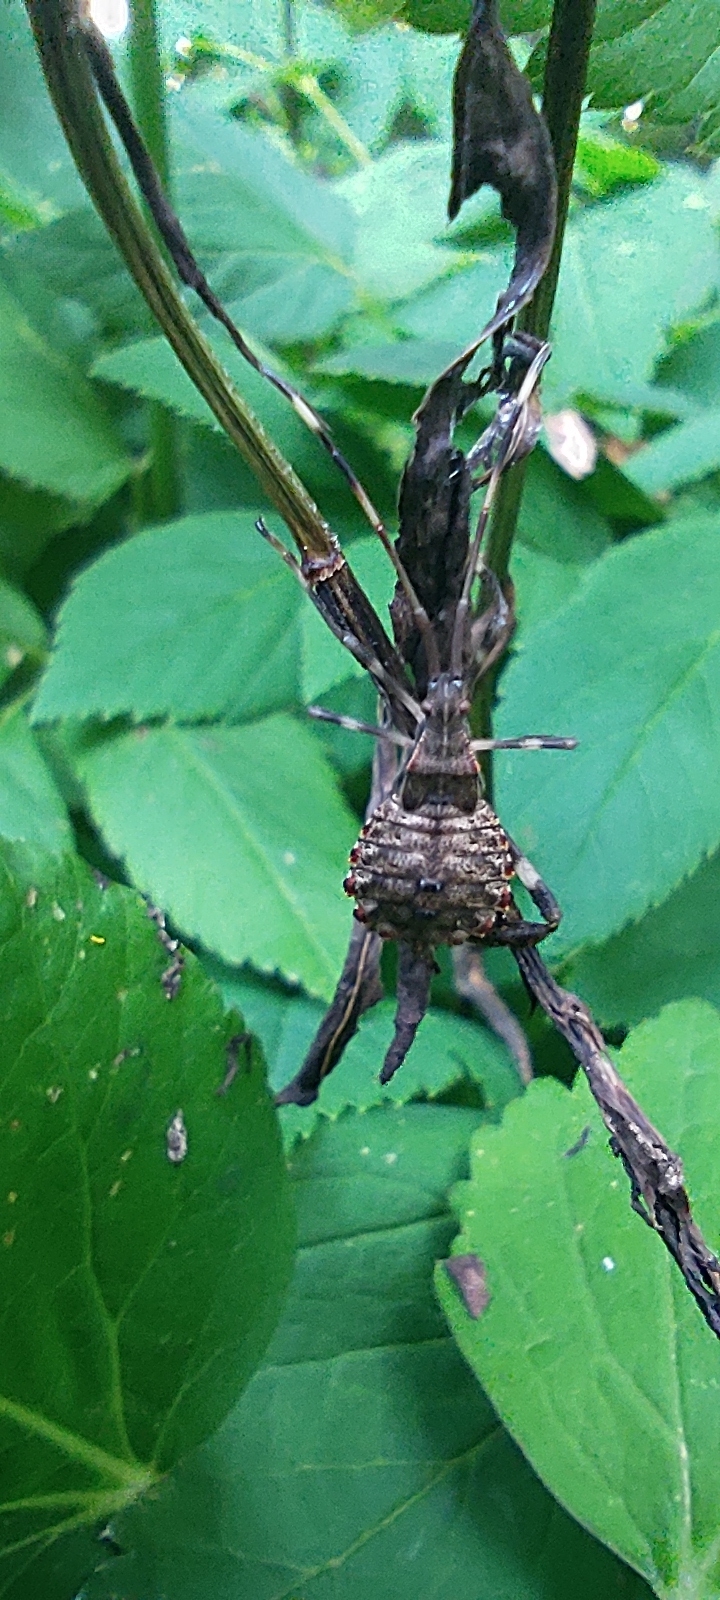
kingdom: Animalia
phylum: Arthropoda
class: Insecta
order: Hemiptera
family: Coreidae
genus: Acanthocephala
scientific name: Acanthocephala terminalis
